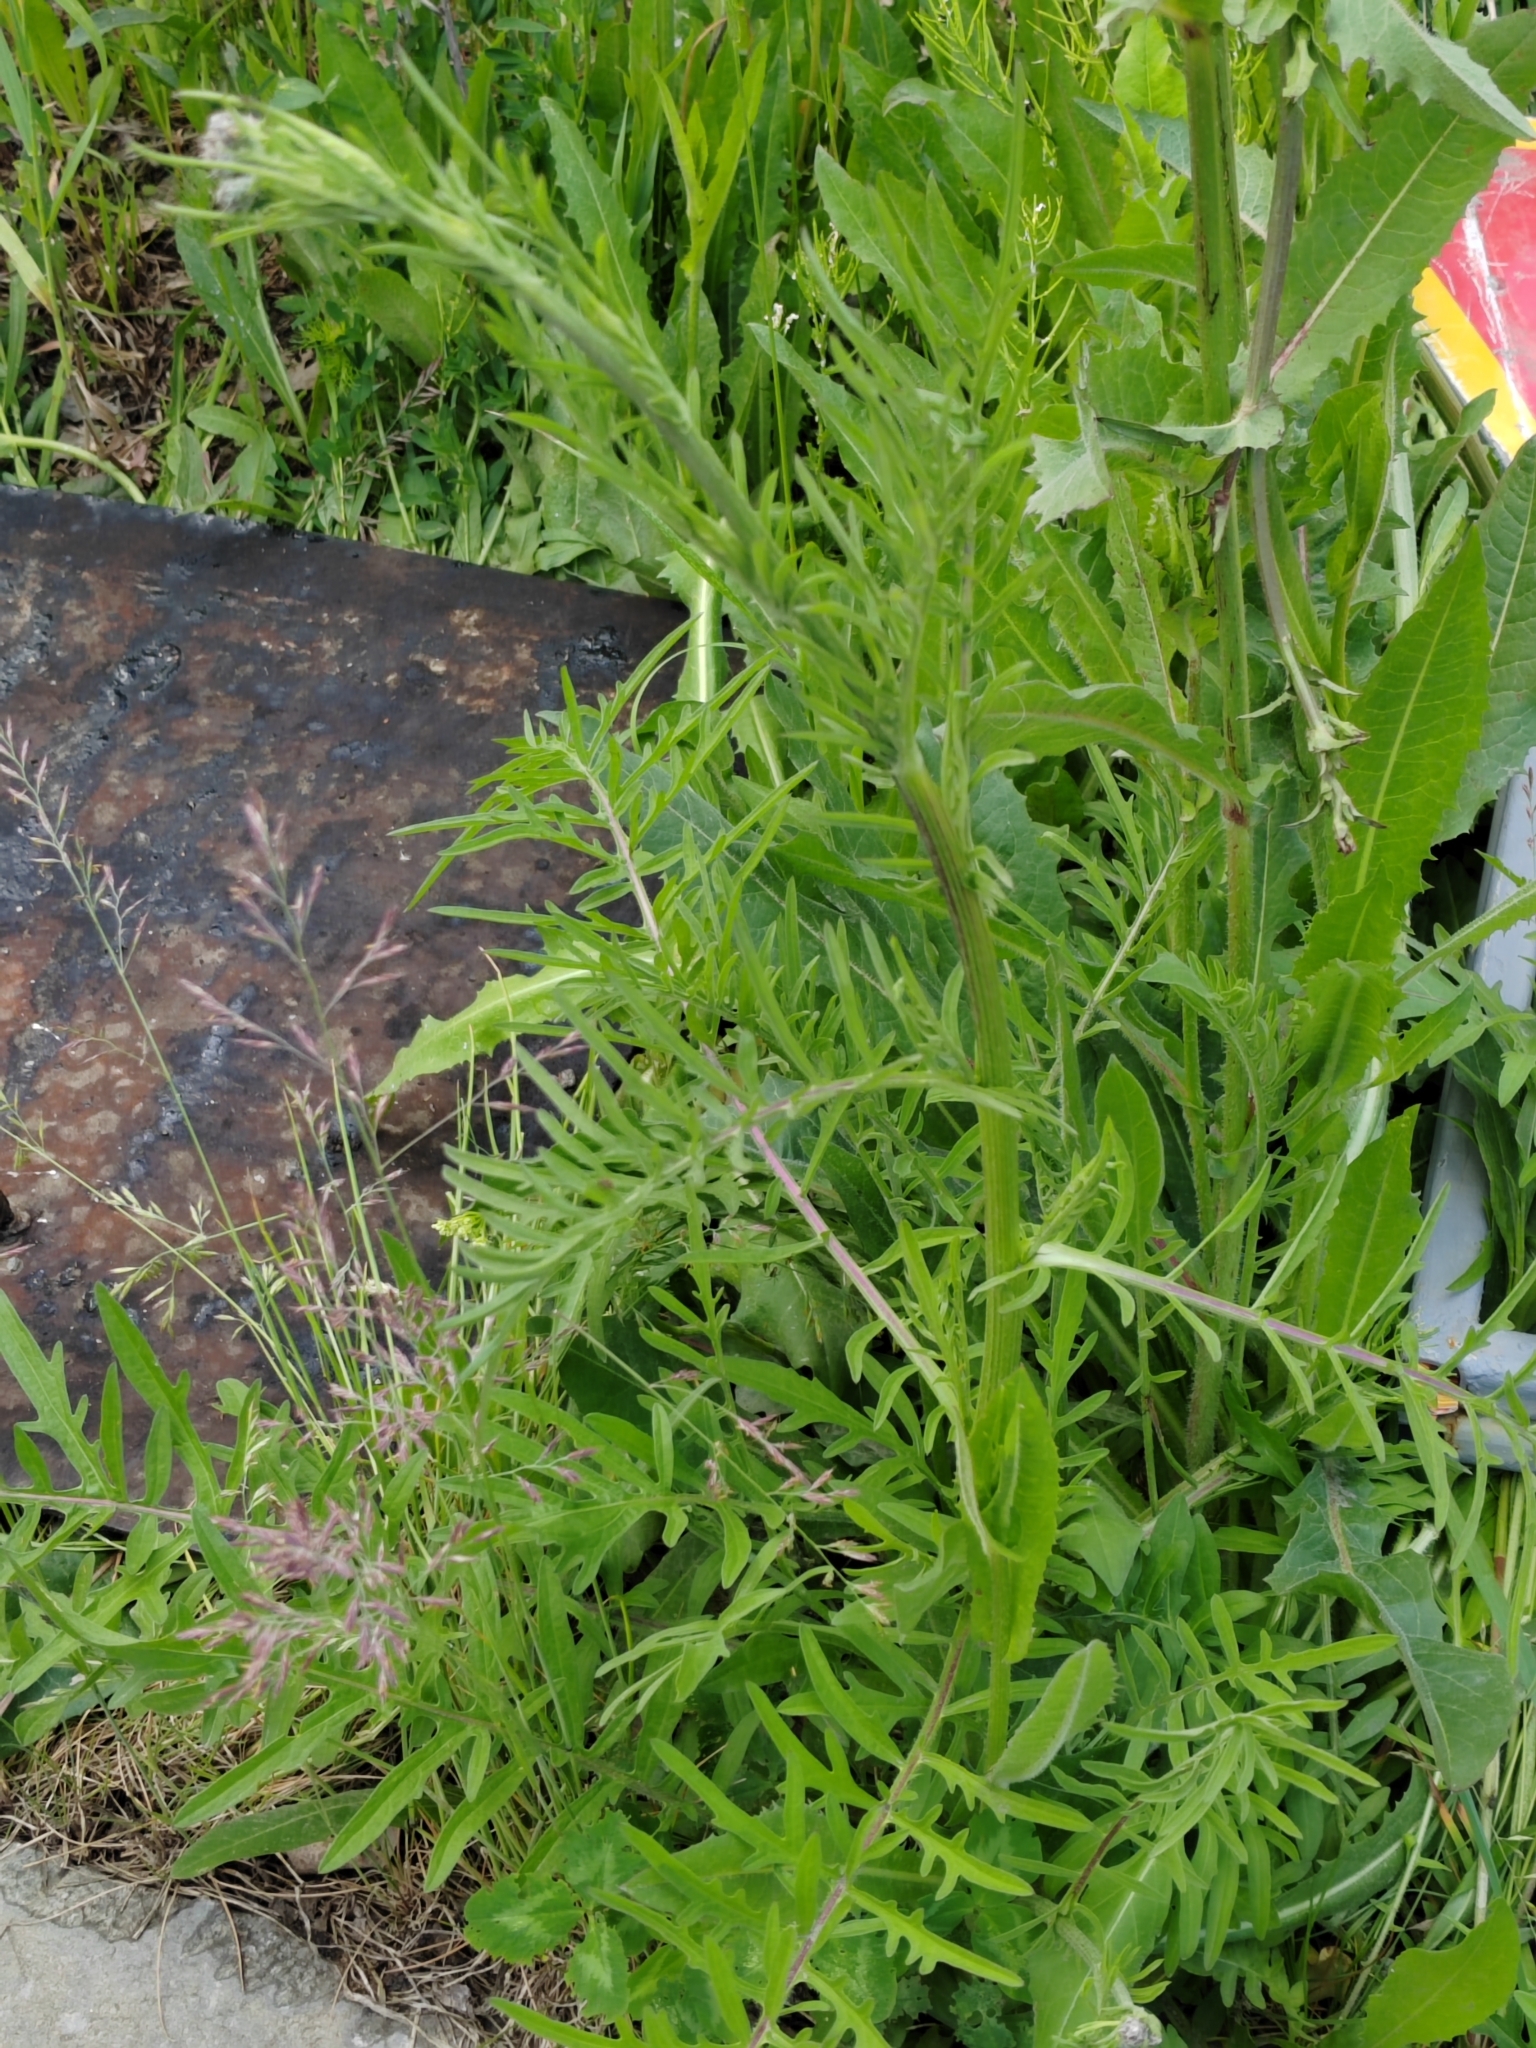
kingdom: Plantae
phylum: Tracheophyta
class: Magnoliopsida
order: Asterales
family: Asteraceae
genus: Centaurea
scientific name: Centaurea scabiosa
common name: Greater knapweed
